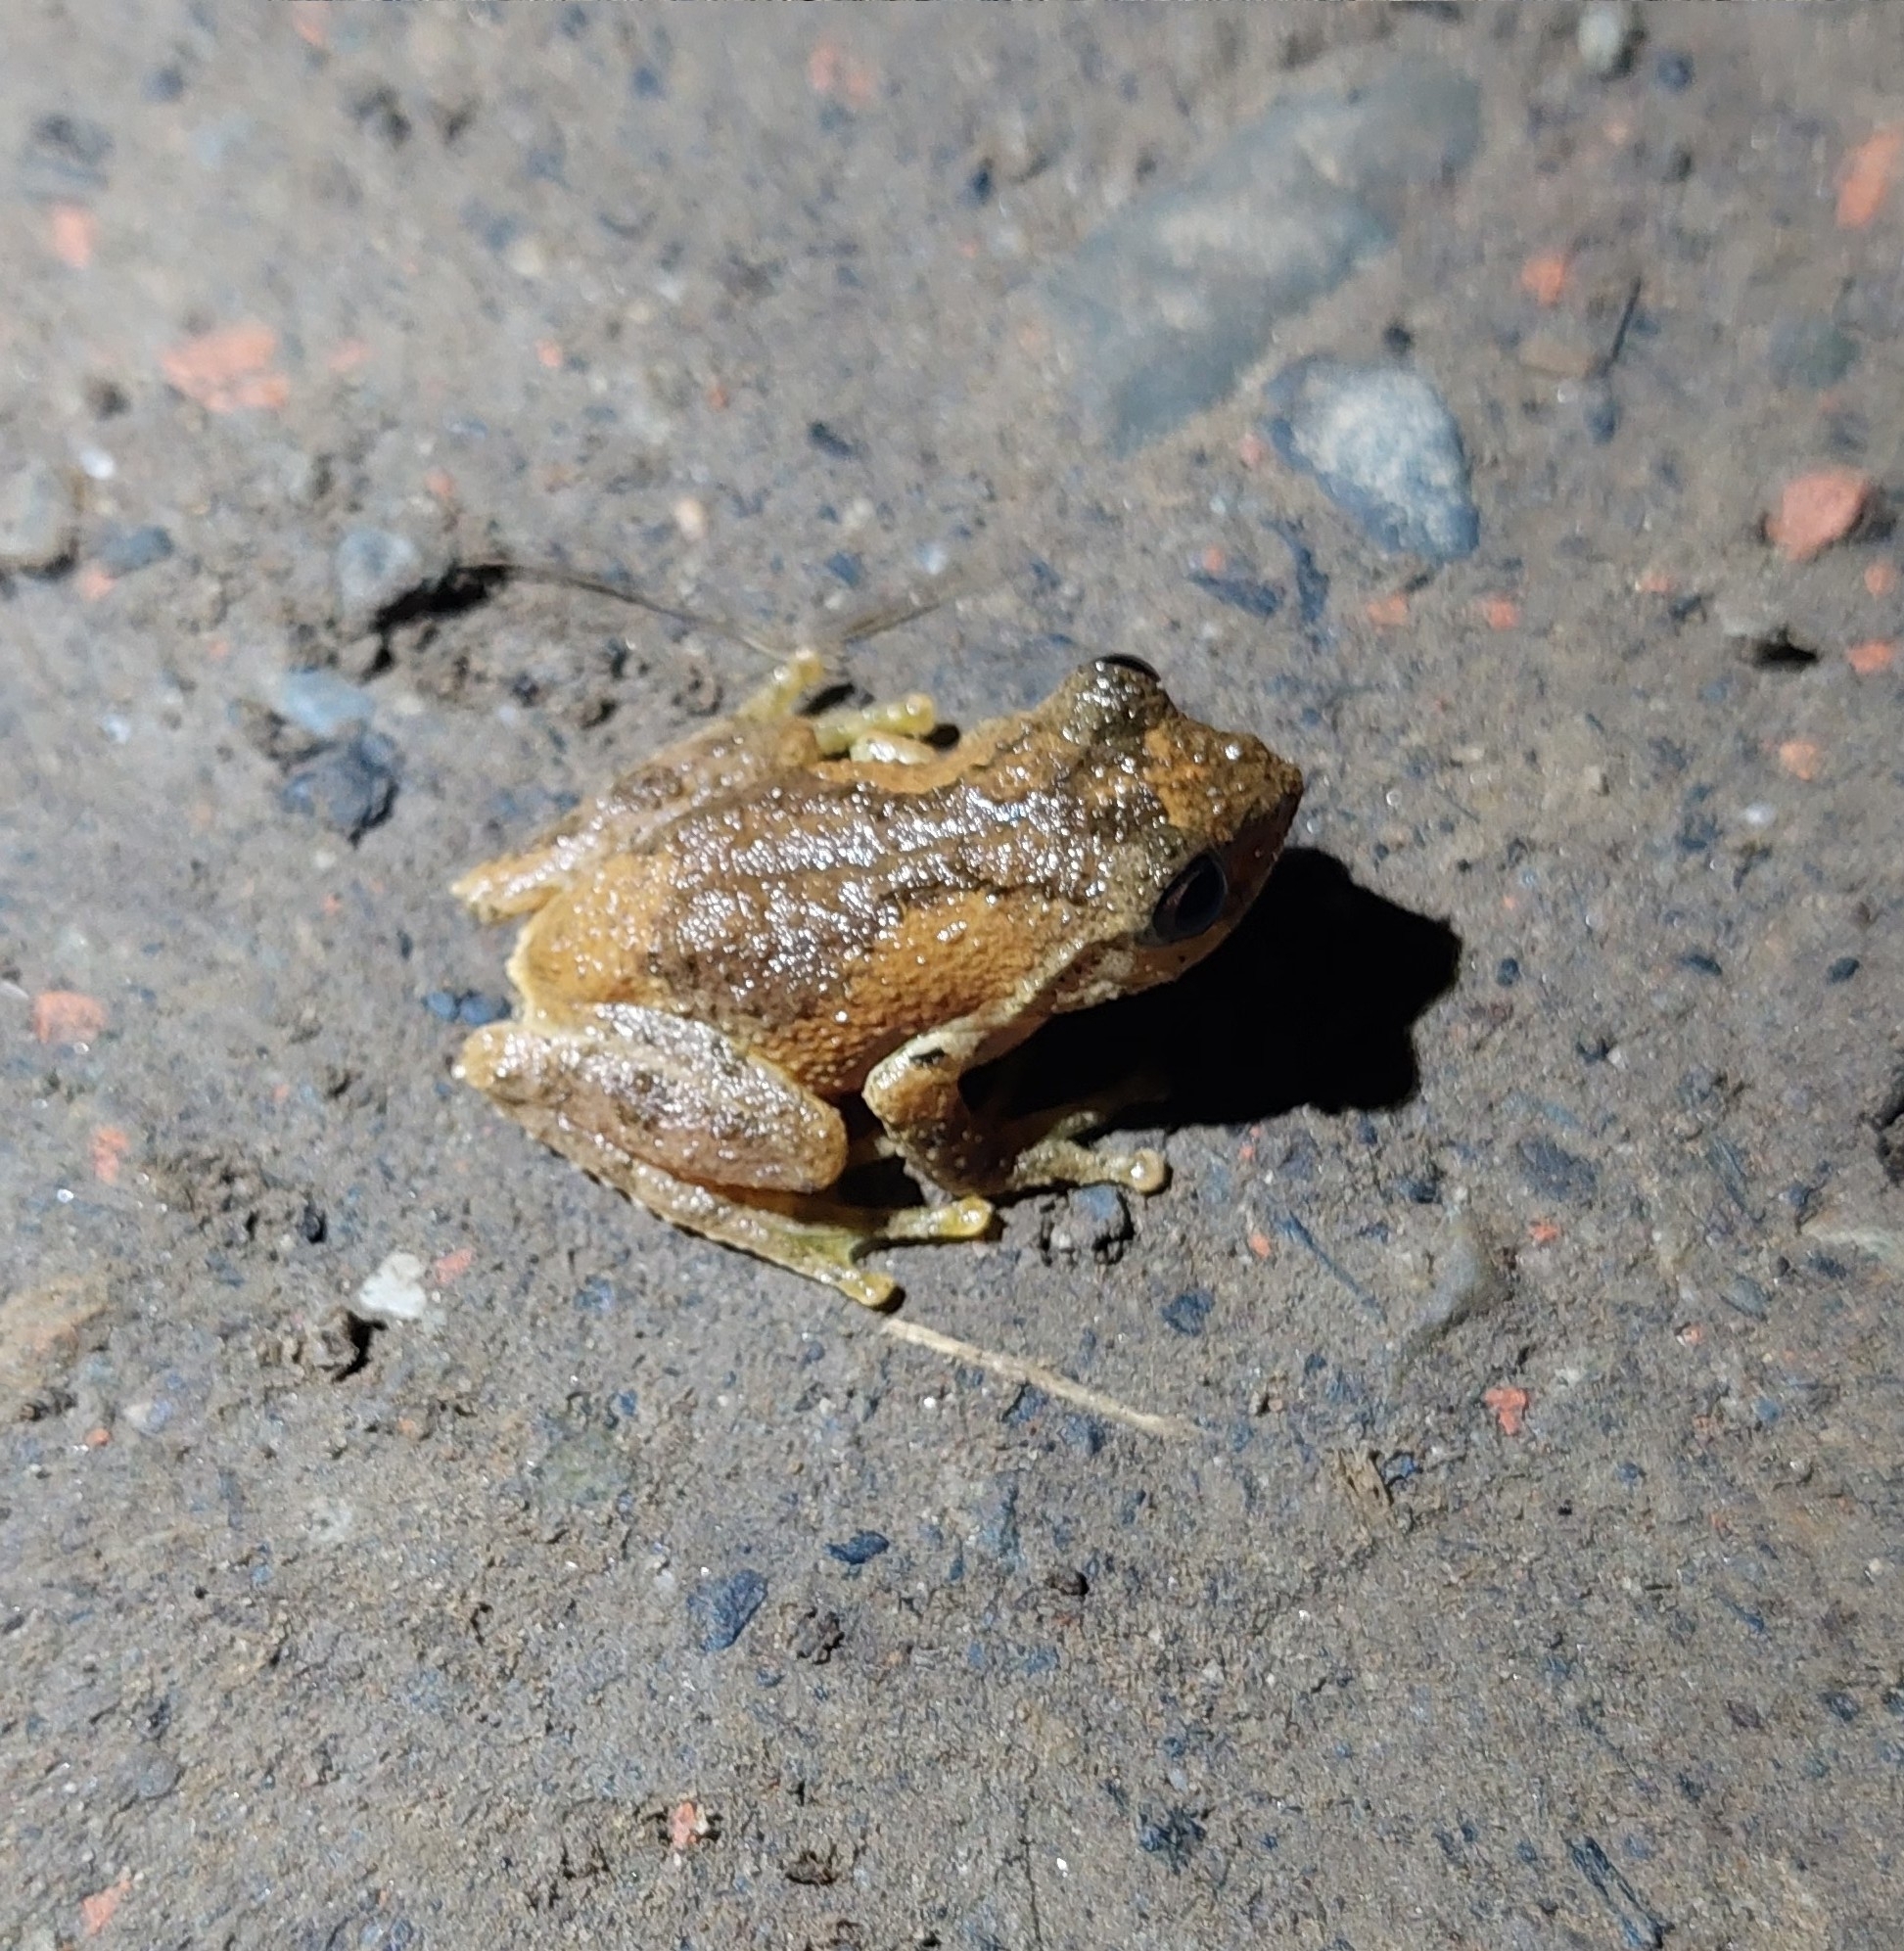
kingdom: Animalia
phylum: Chordata
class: Amphibia
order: Anura
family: Rhacophoridae
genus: Kurixalus
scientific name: Kurixalus idiootocus
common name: Temple treefrog
